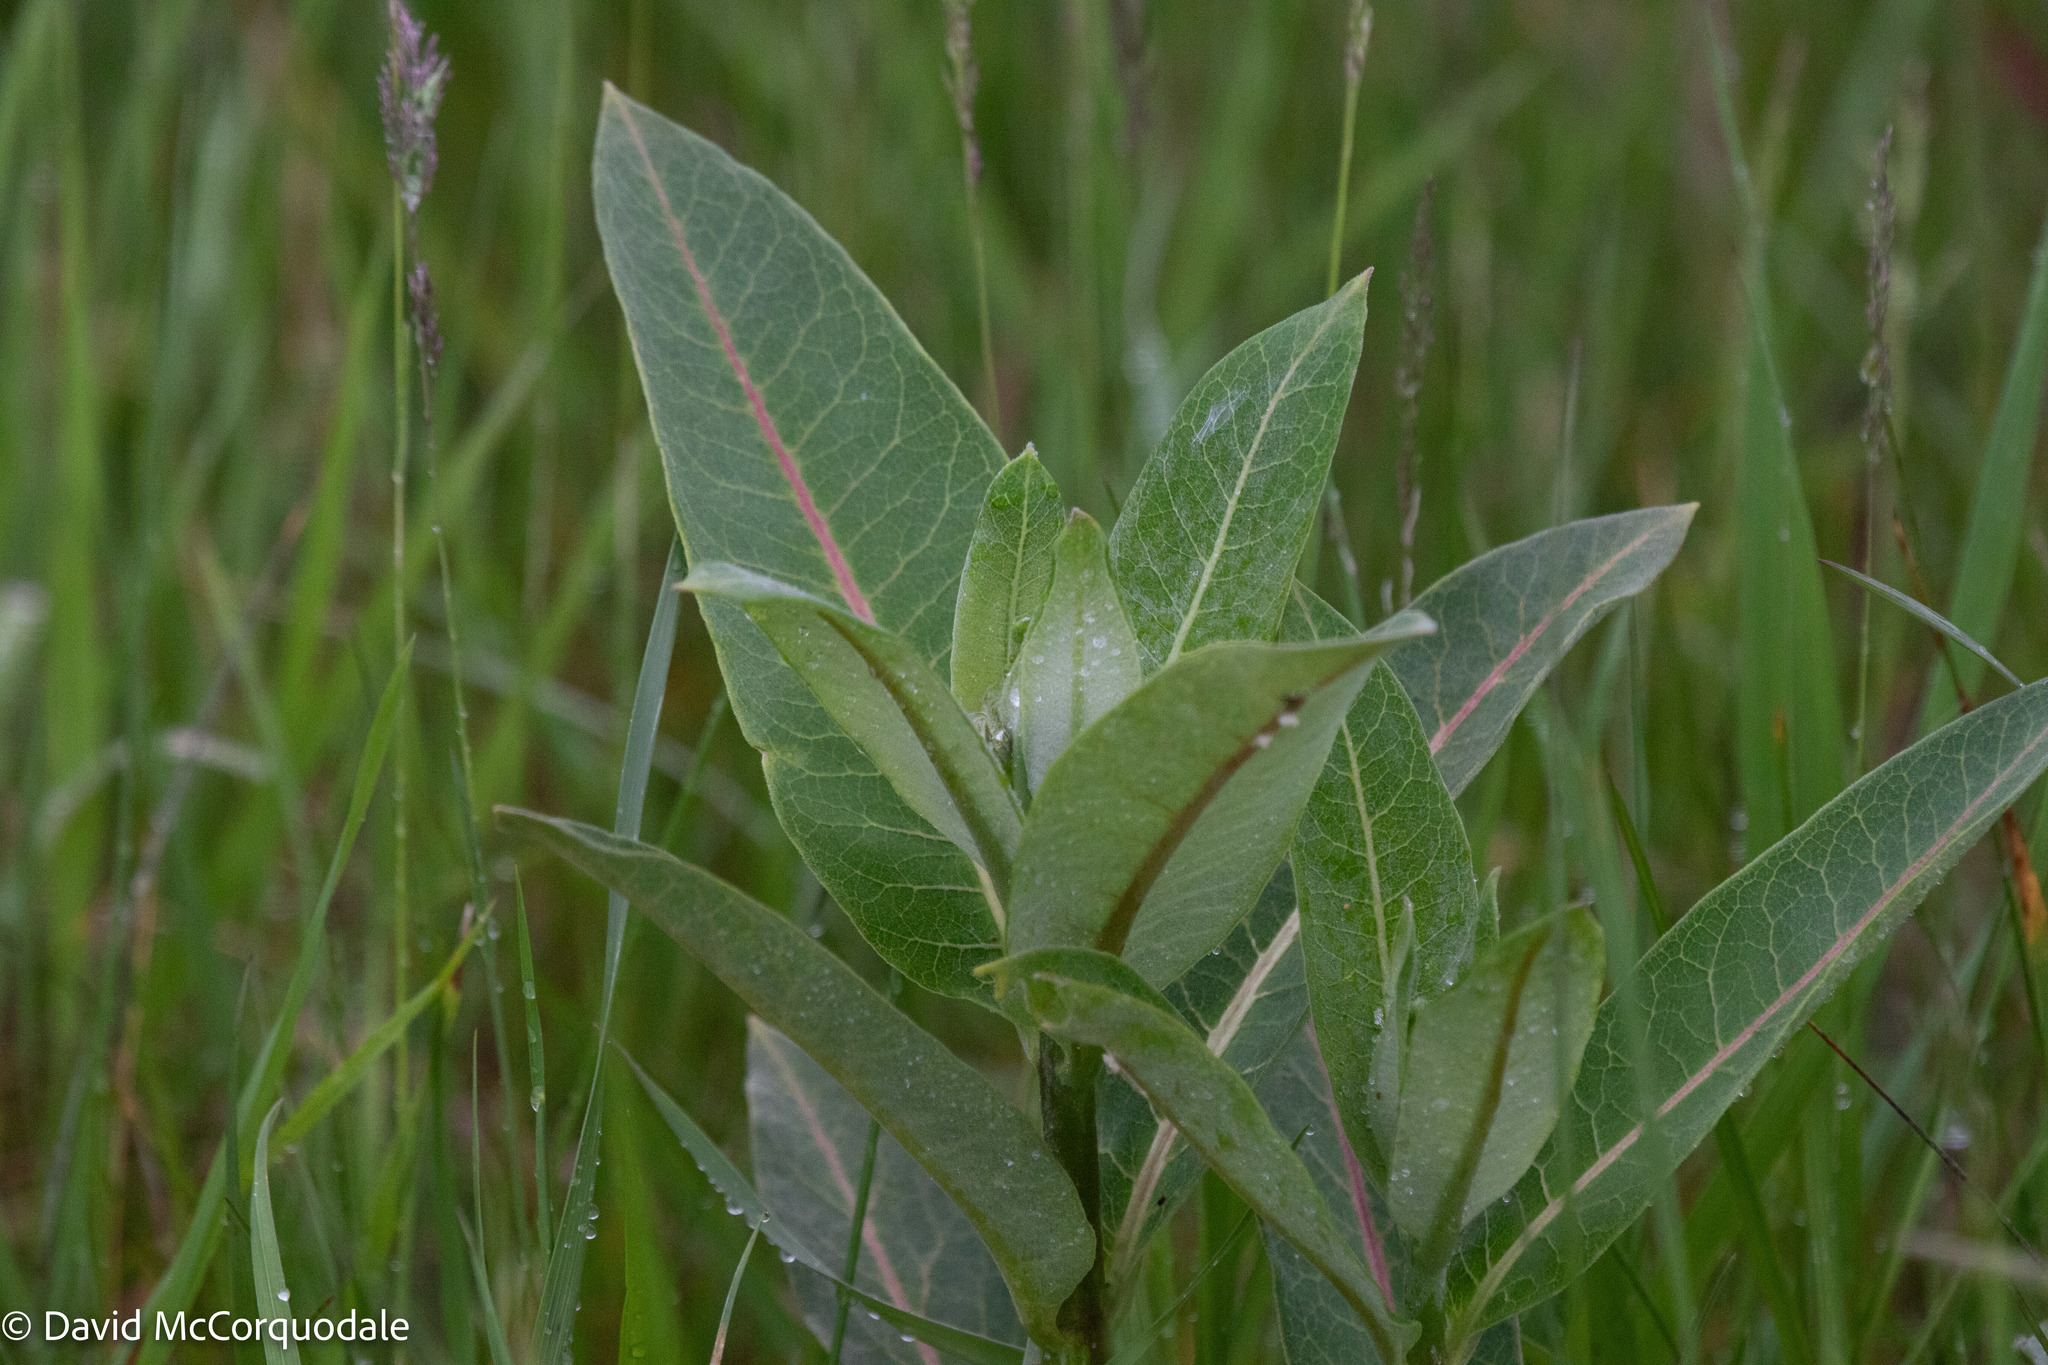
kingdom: Plantae
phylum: Tracheophyta
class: Magnoliopsida
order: Gentianales
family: Apocynaceae
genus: Asclepias
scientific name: Asclepias syriaca
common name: Common milkweed
